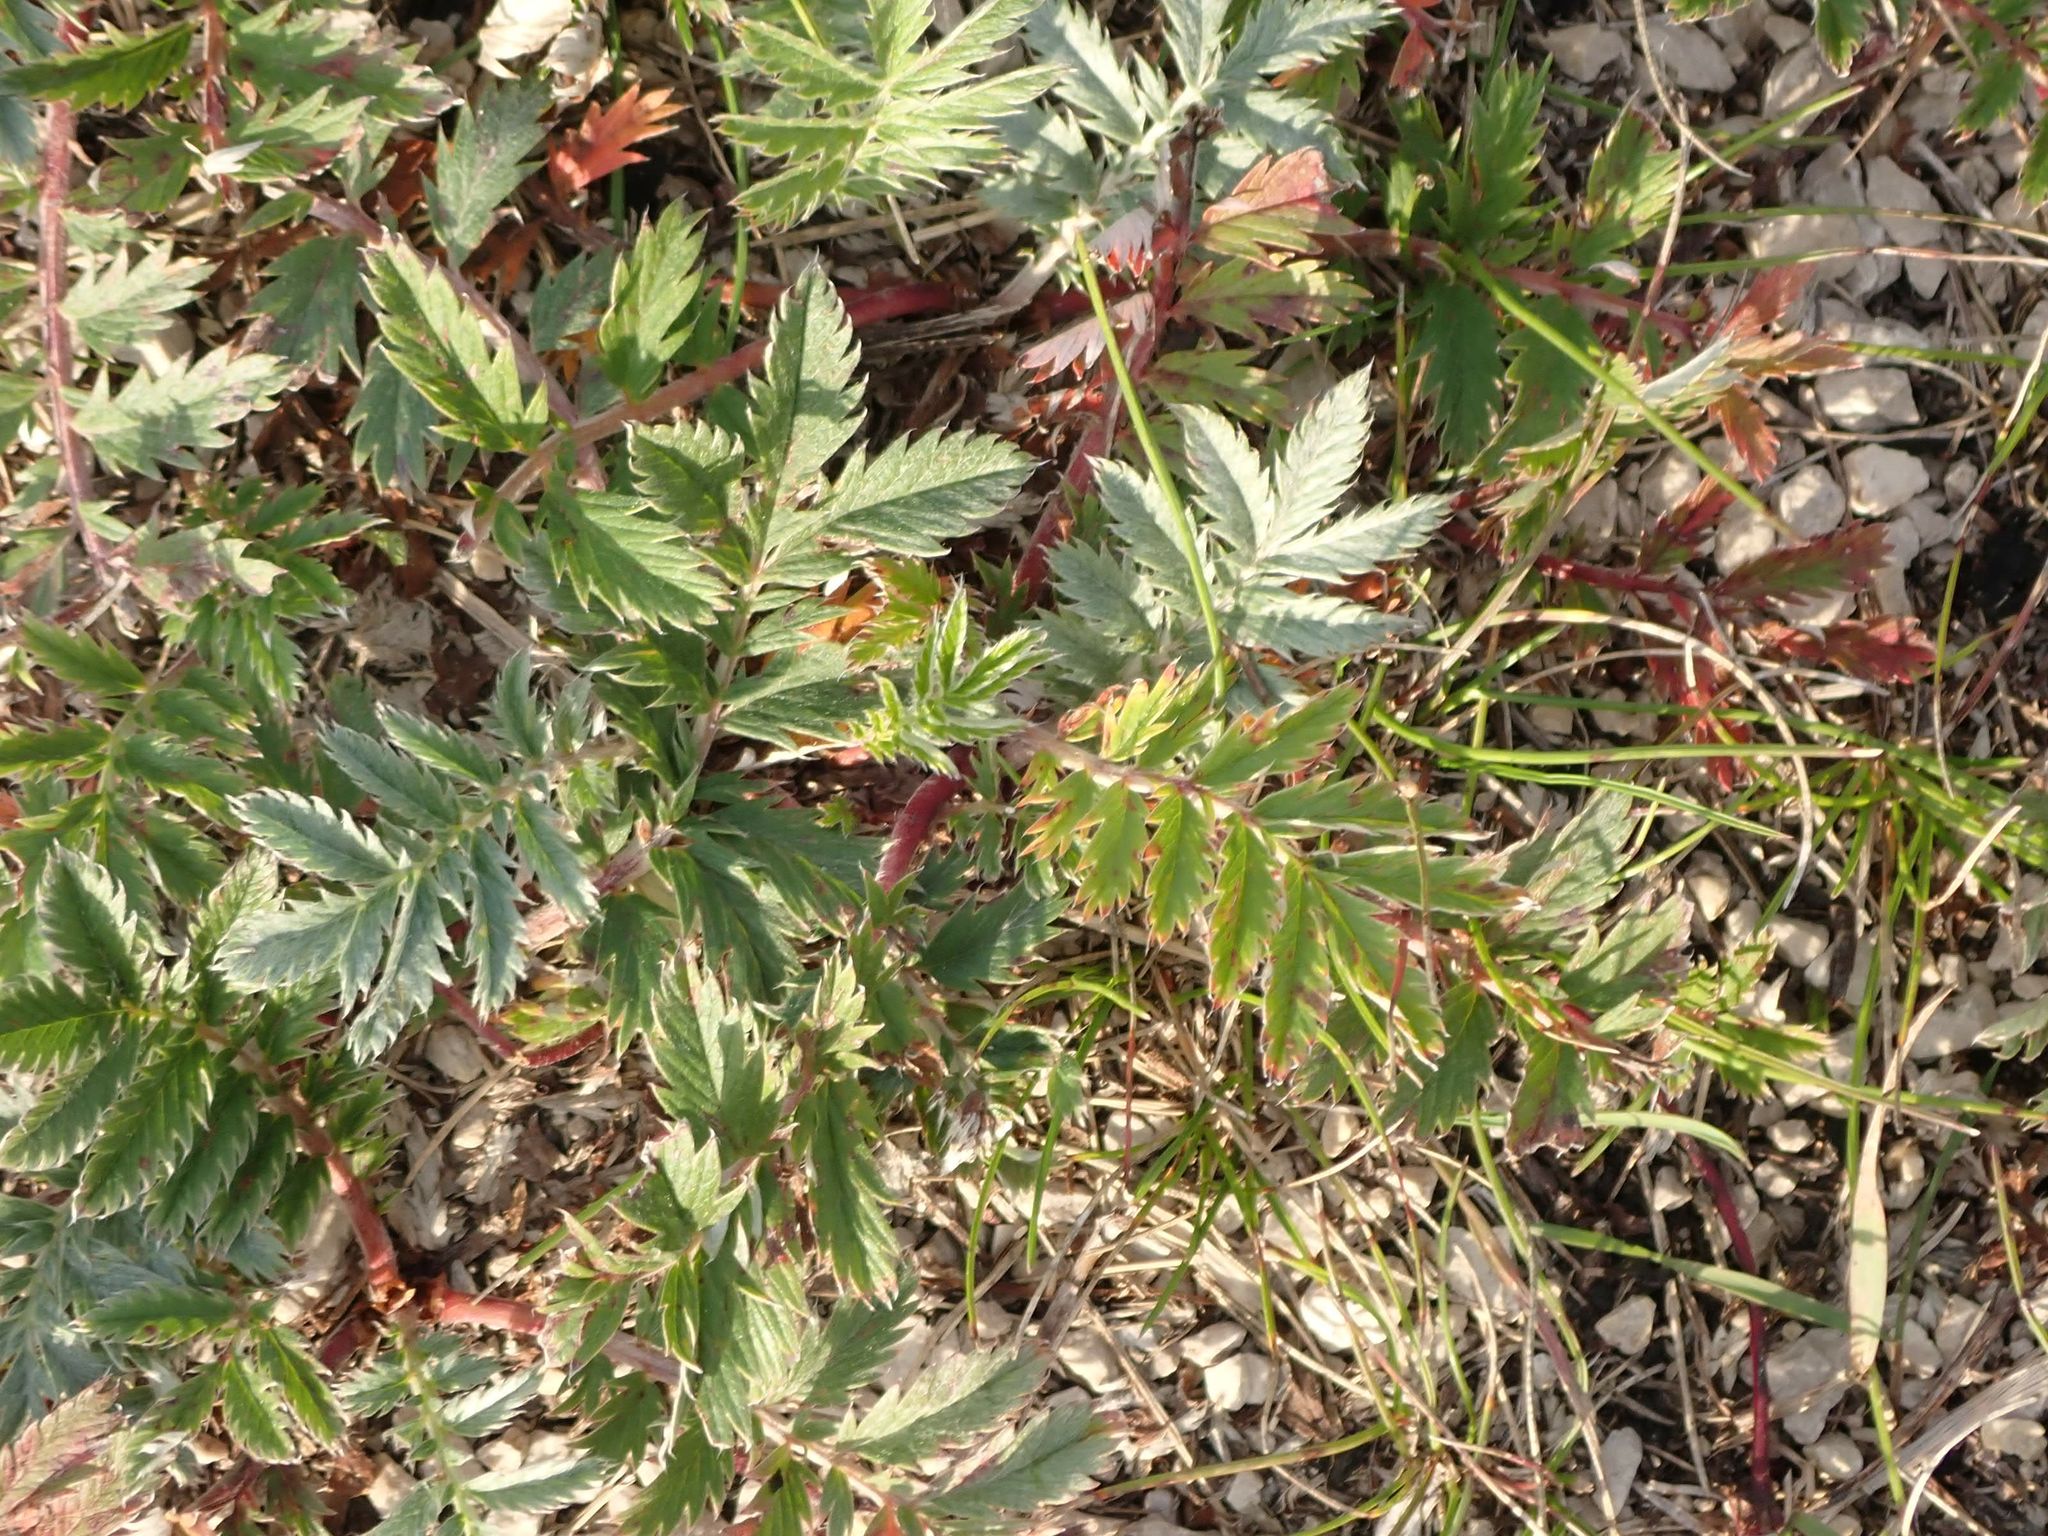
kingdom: Plantae
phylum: Tracheophyta
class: Magnoliopsida
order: Rosales
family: Rosaceae
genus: Argentina
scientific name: Argentina anserina
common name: Common silverweed
